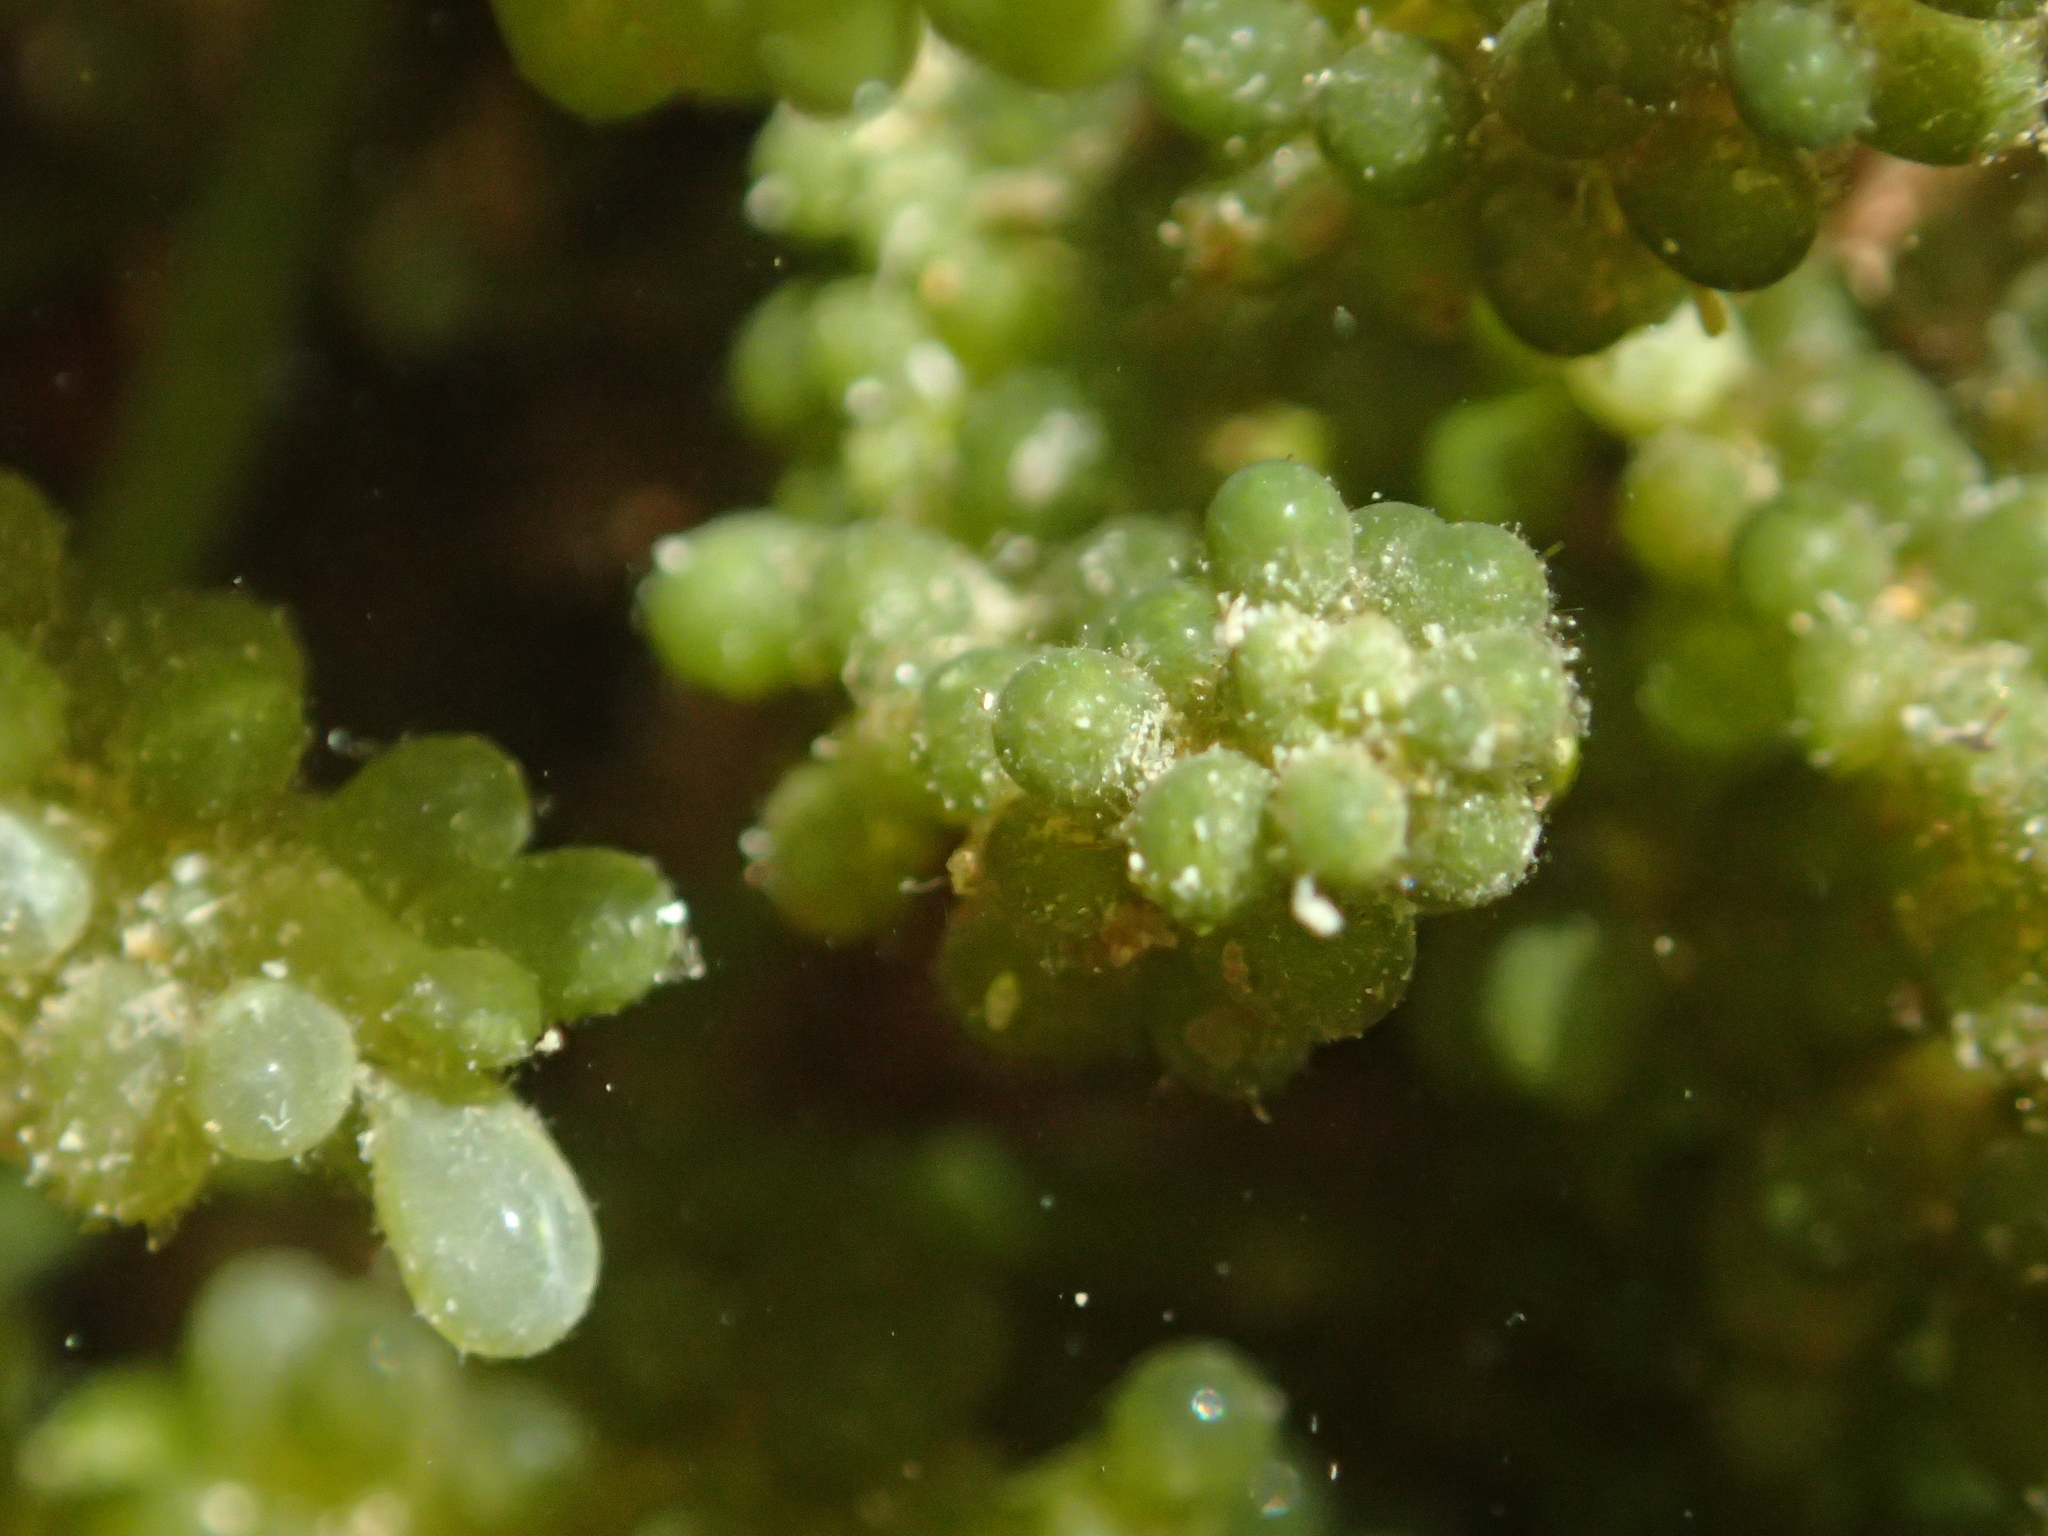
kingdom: Plantae
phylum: Chlorophyta
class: Ulvophyceae
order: Bryopsidales
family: Caulerpaceae
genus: Caulerpa
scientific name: Caulerpa geminata
